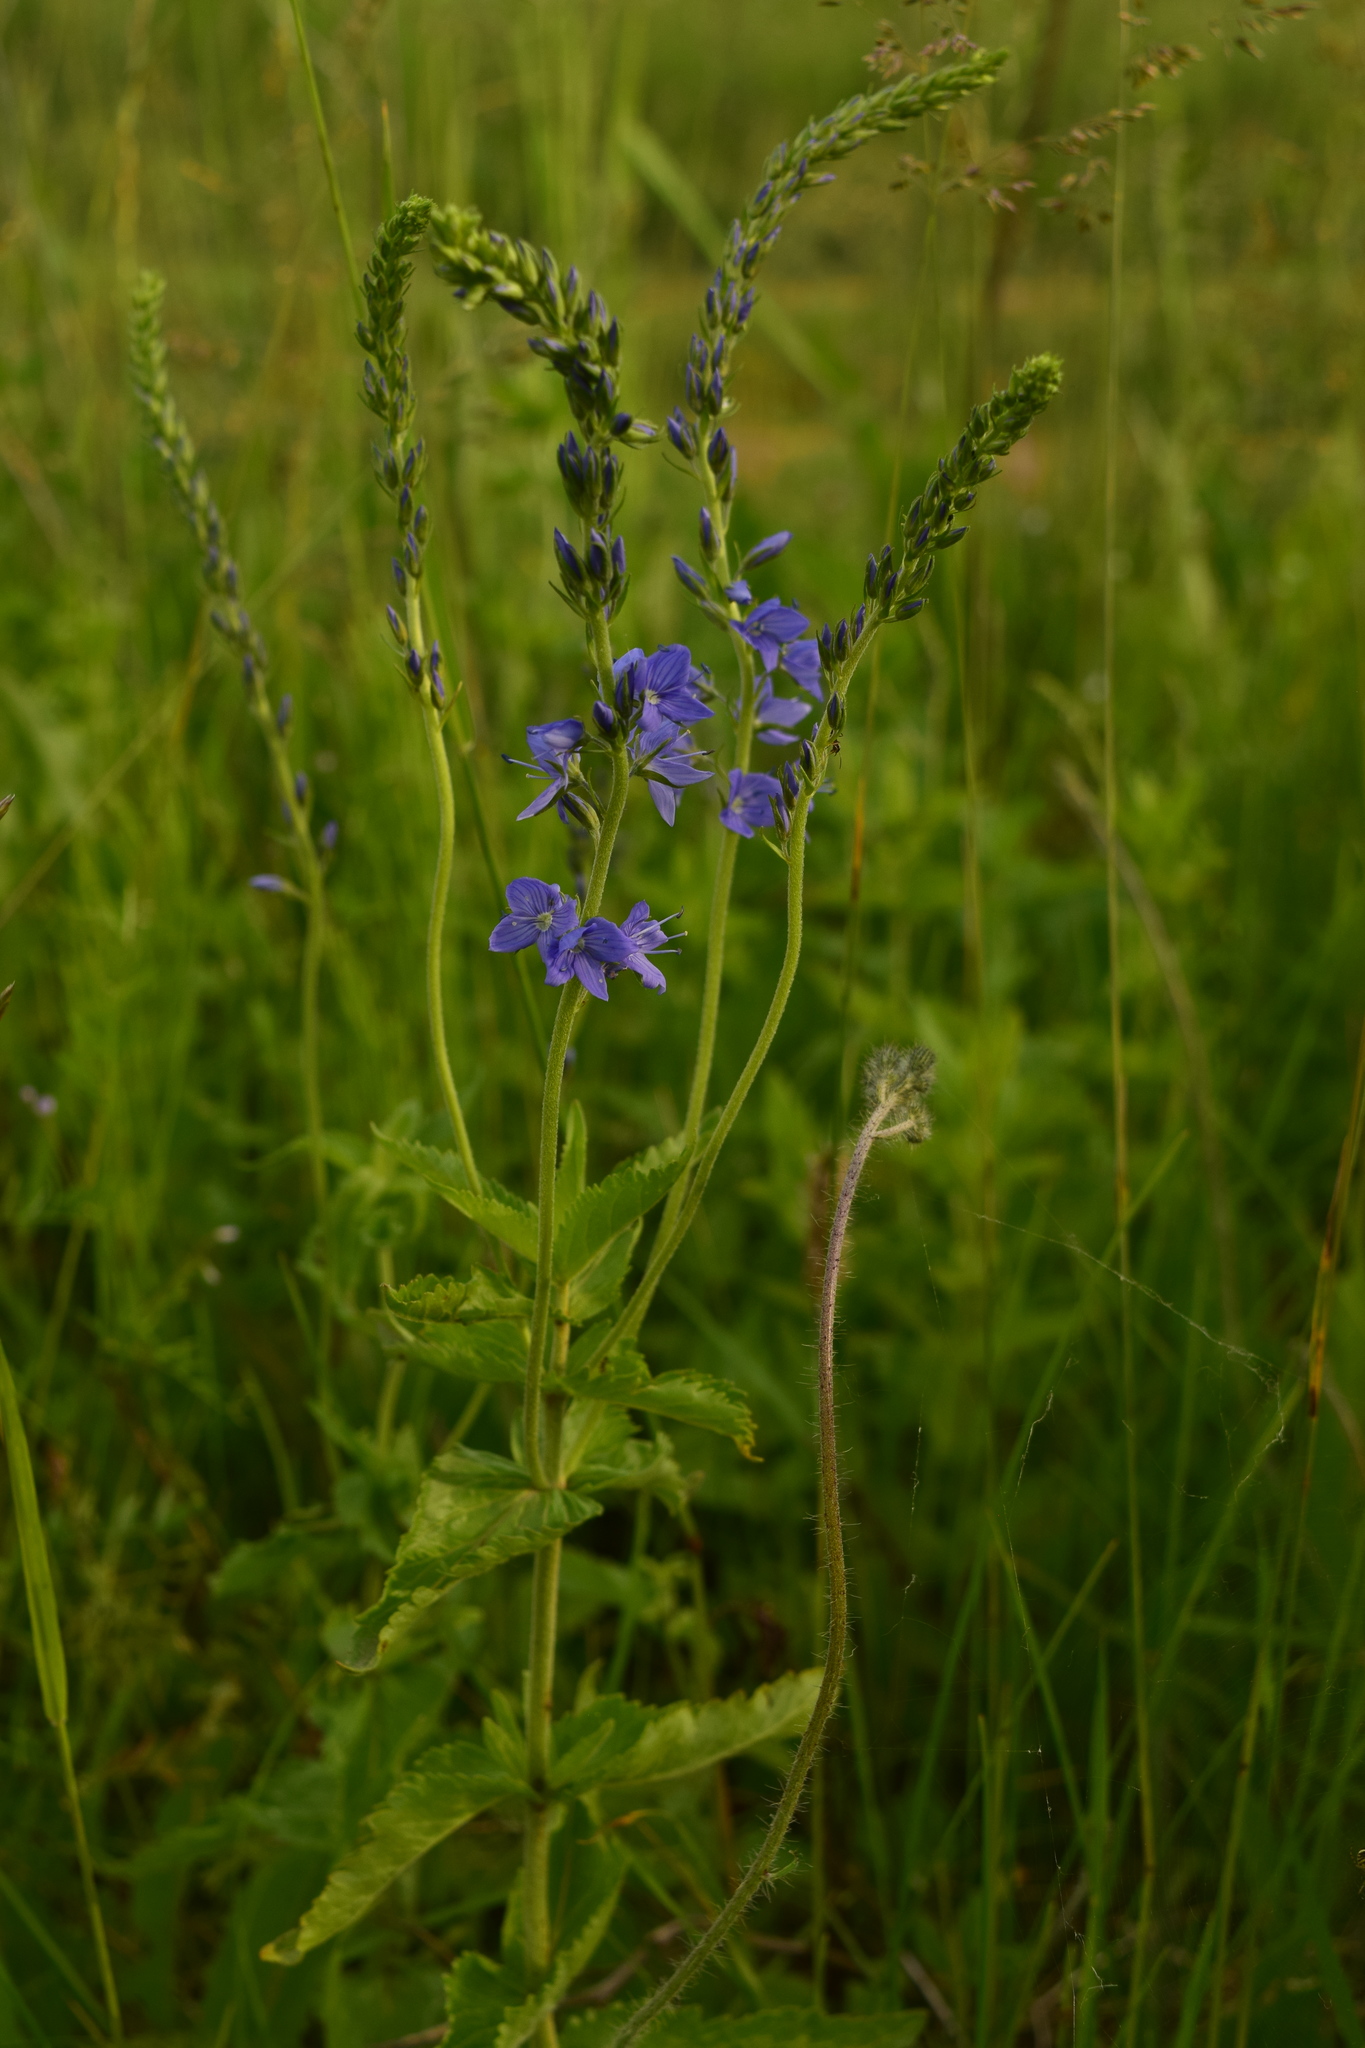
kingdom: Plantae
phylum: Tracheophyta
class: Magnoliopsida
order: Lamiales
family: Plantaginaceae
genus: Veronica
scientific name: Veronica teucrium
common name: Large speedwell
